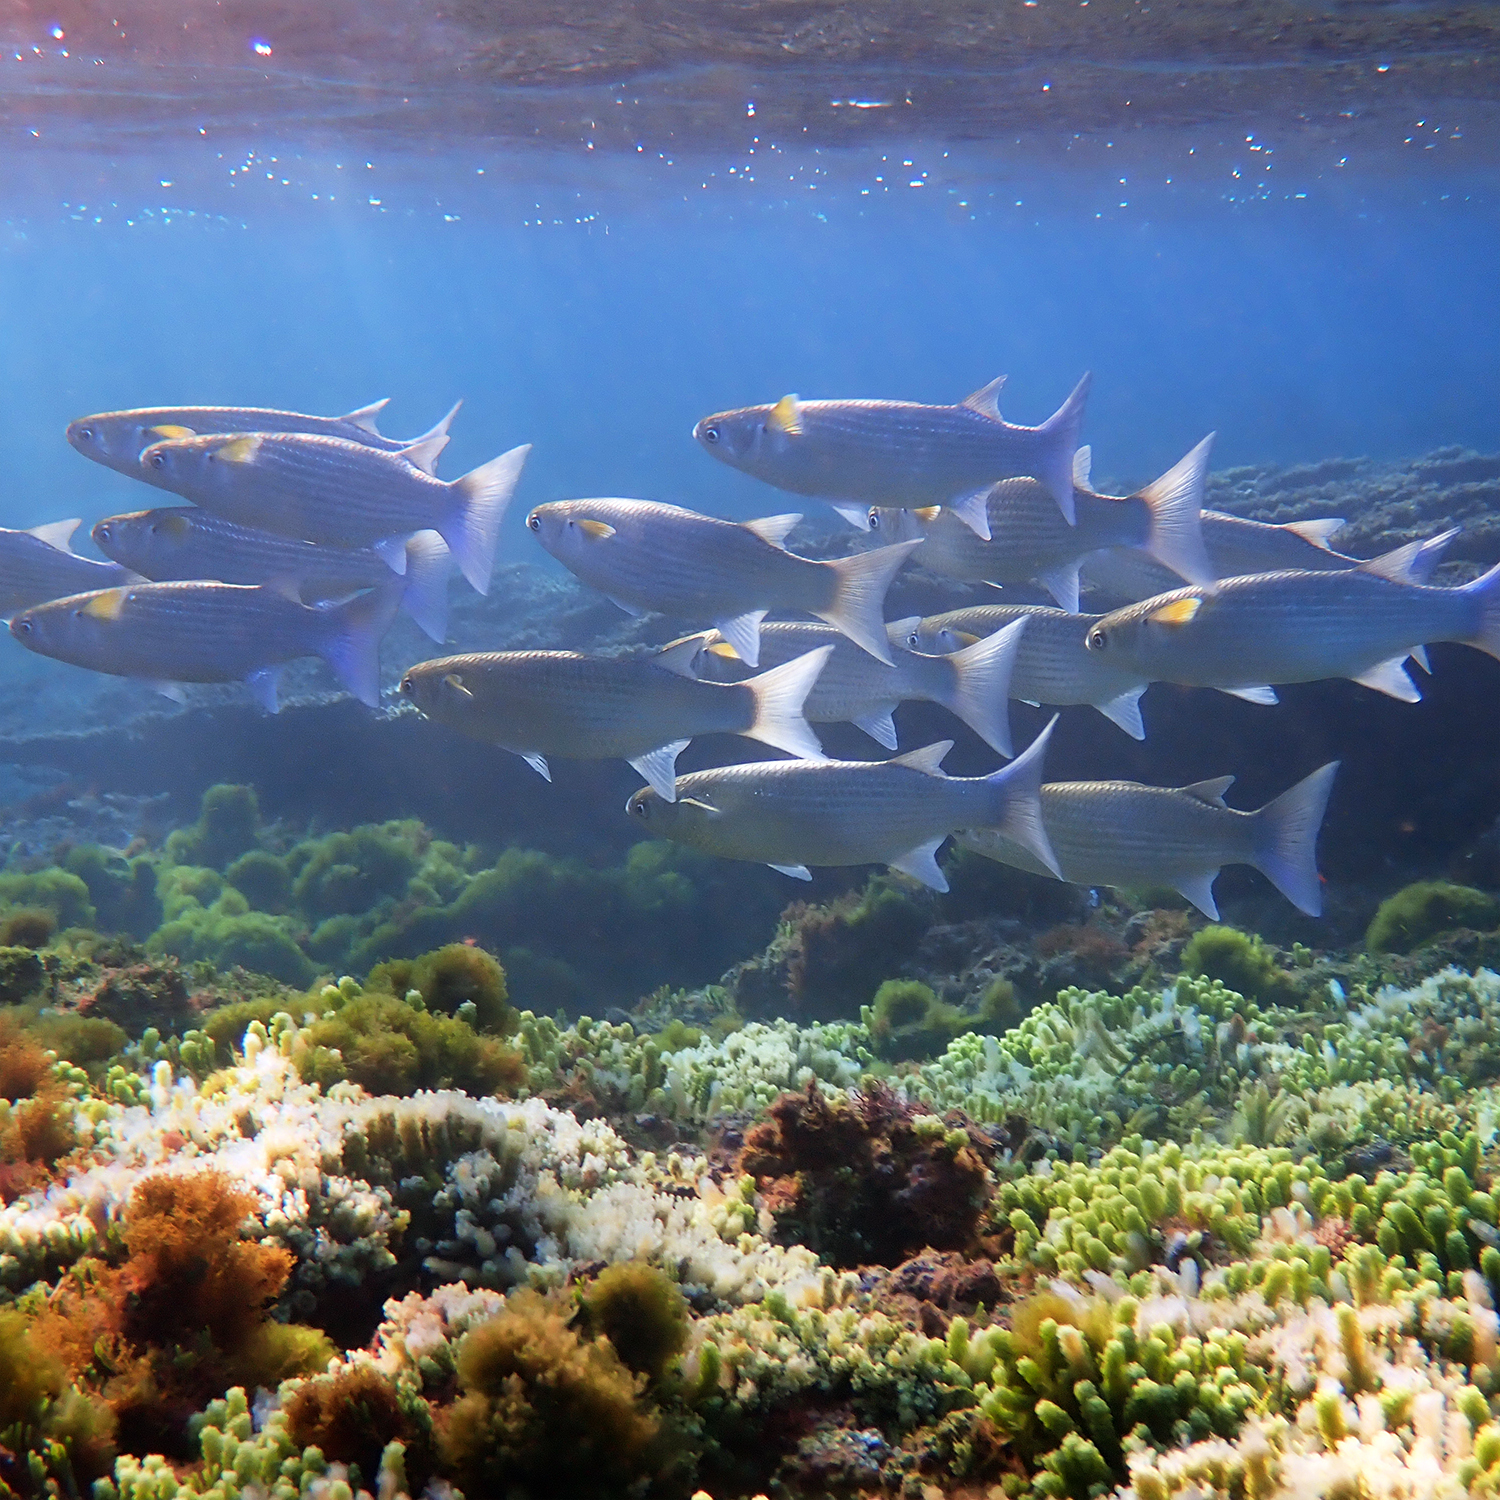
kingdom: Animalia
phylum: Chordata
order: Mugiliformes
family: Mugilidae
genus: Crenimugil
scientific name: Crenimugil crenilabis
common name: Fringelip mullet
